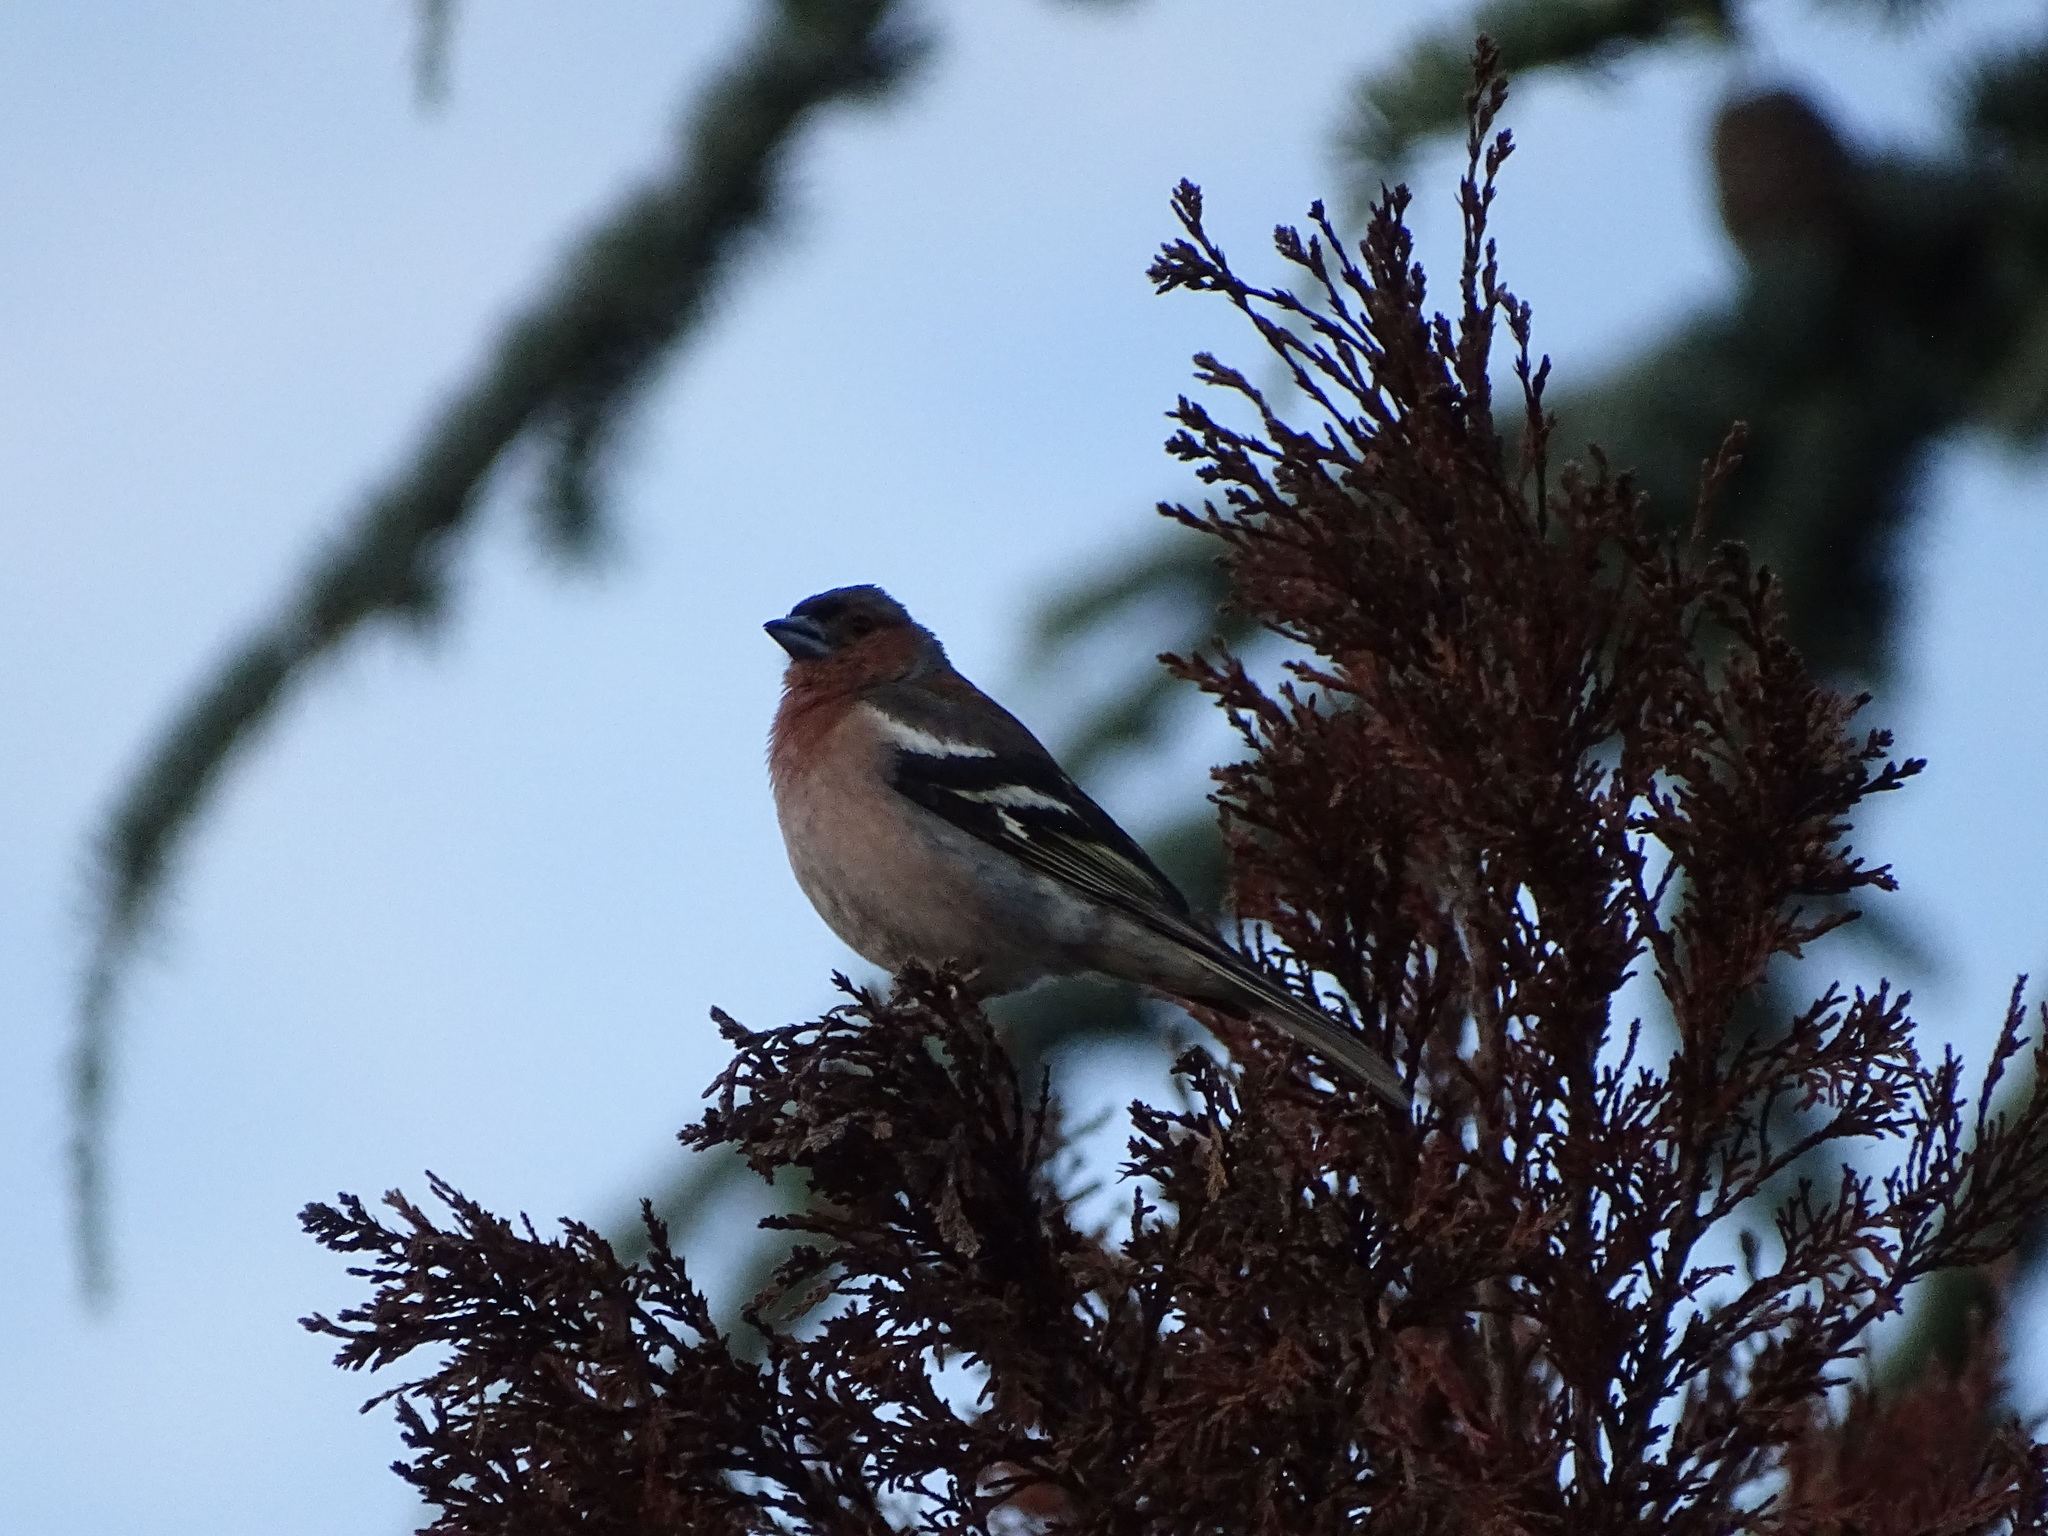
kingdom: Animalia
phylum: Chordata
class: Aves
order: Passeriformes
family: Fringillidae
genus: Fringilla
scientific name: Fringilla coelebs
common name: Common chaffinch
